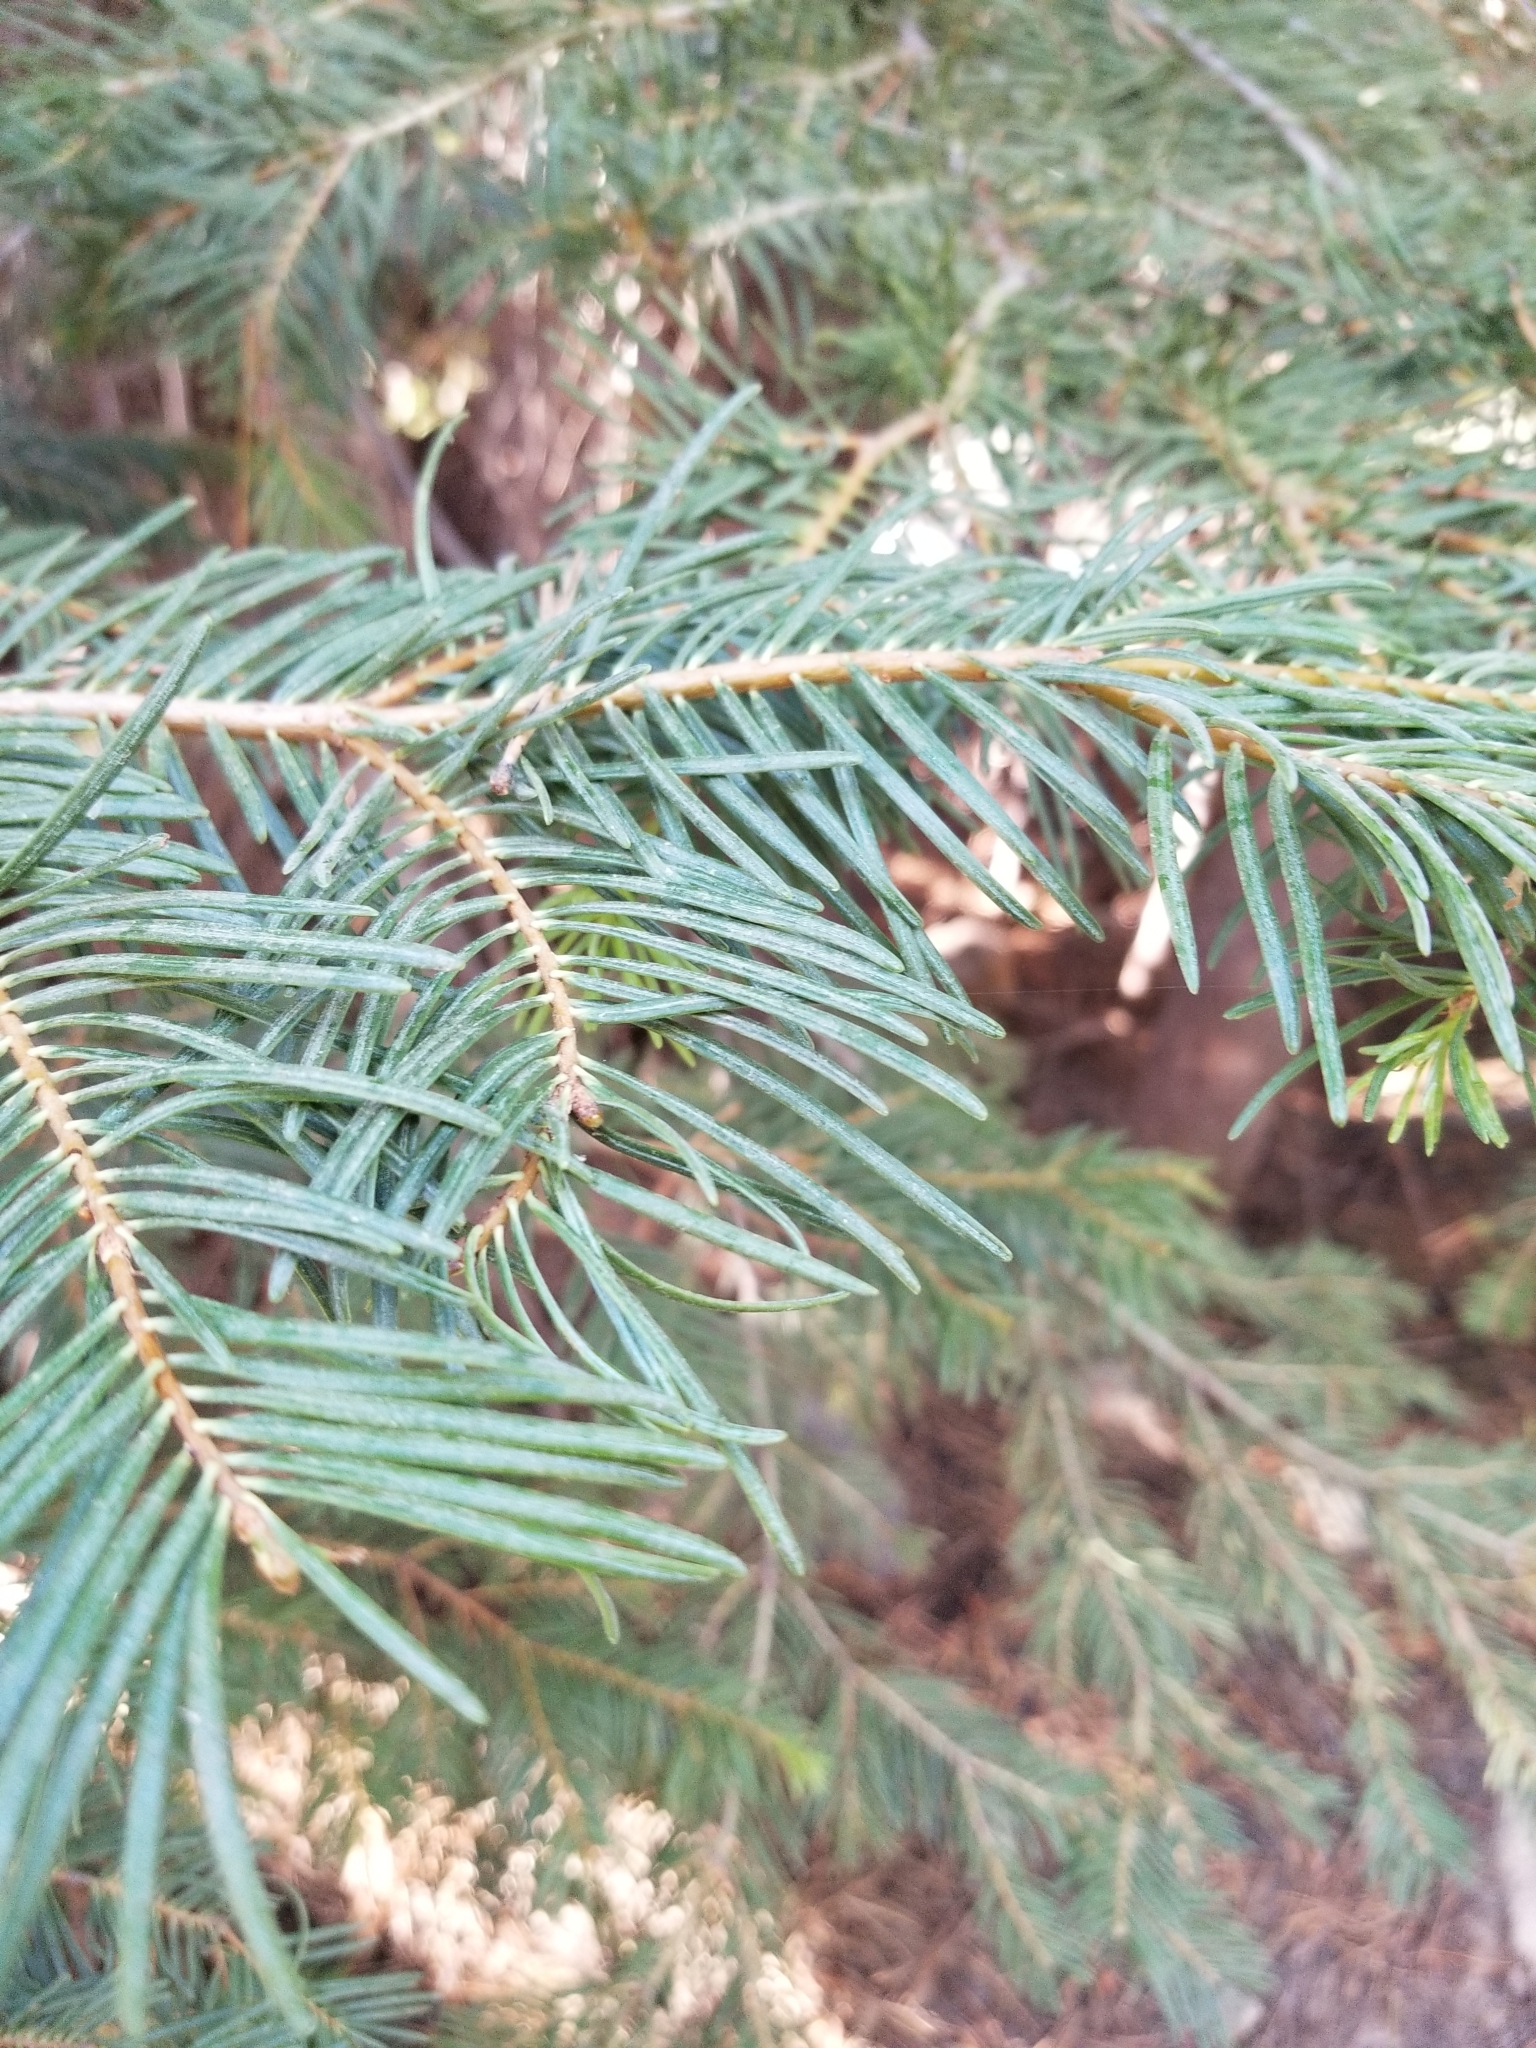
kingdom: Plantae
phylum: Tracheophyta
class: Pinopsida
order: Pinales
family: Pinaceae
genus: Abies
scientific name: Abies concolor
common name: Colorado fir
